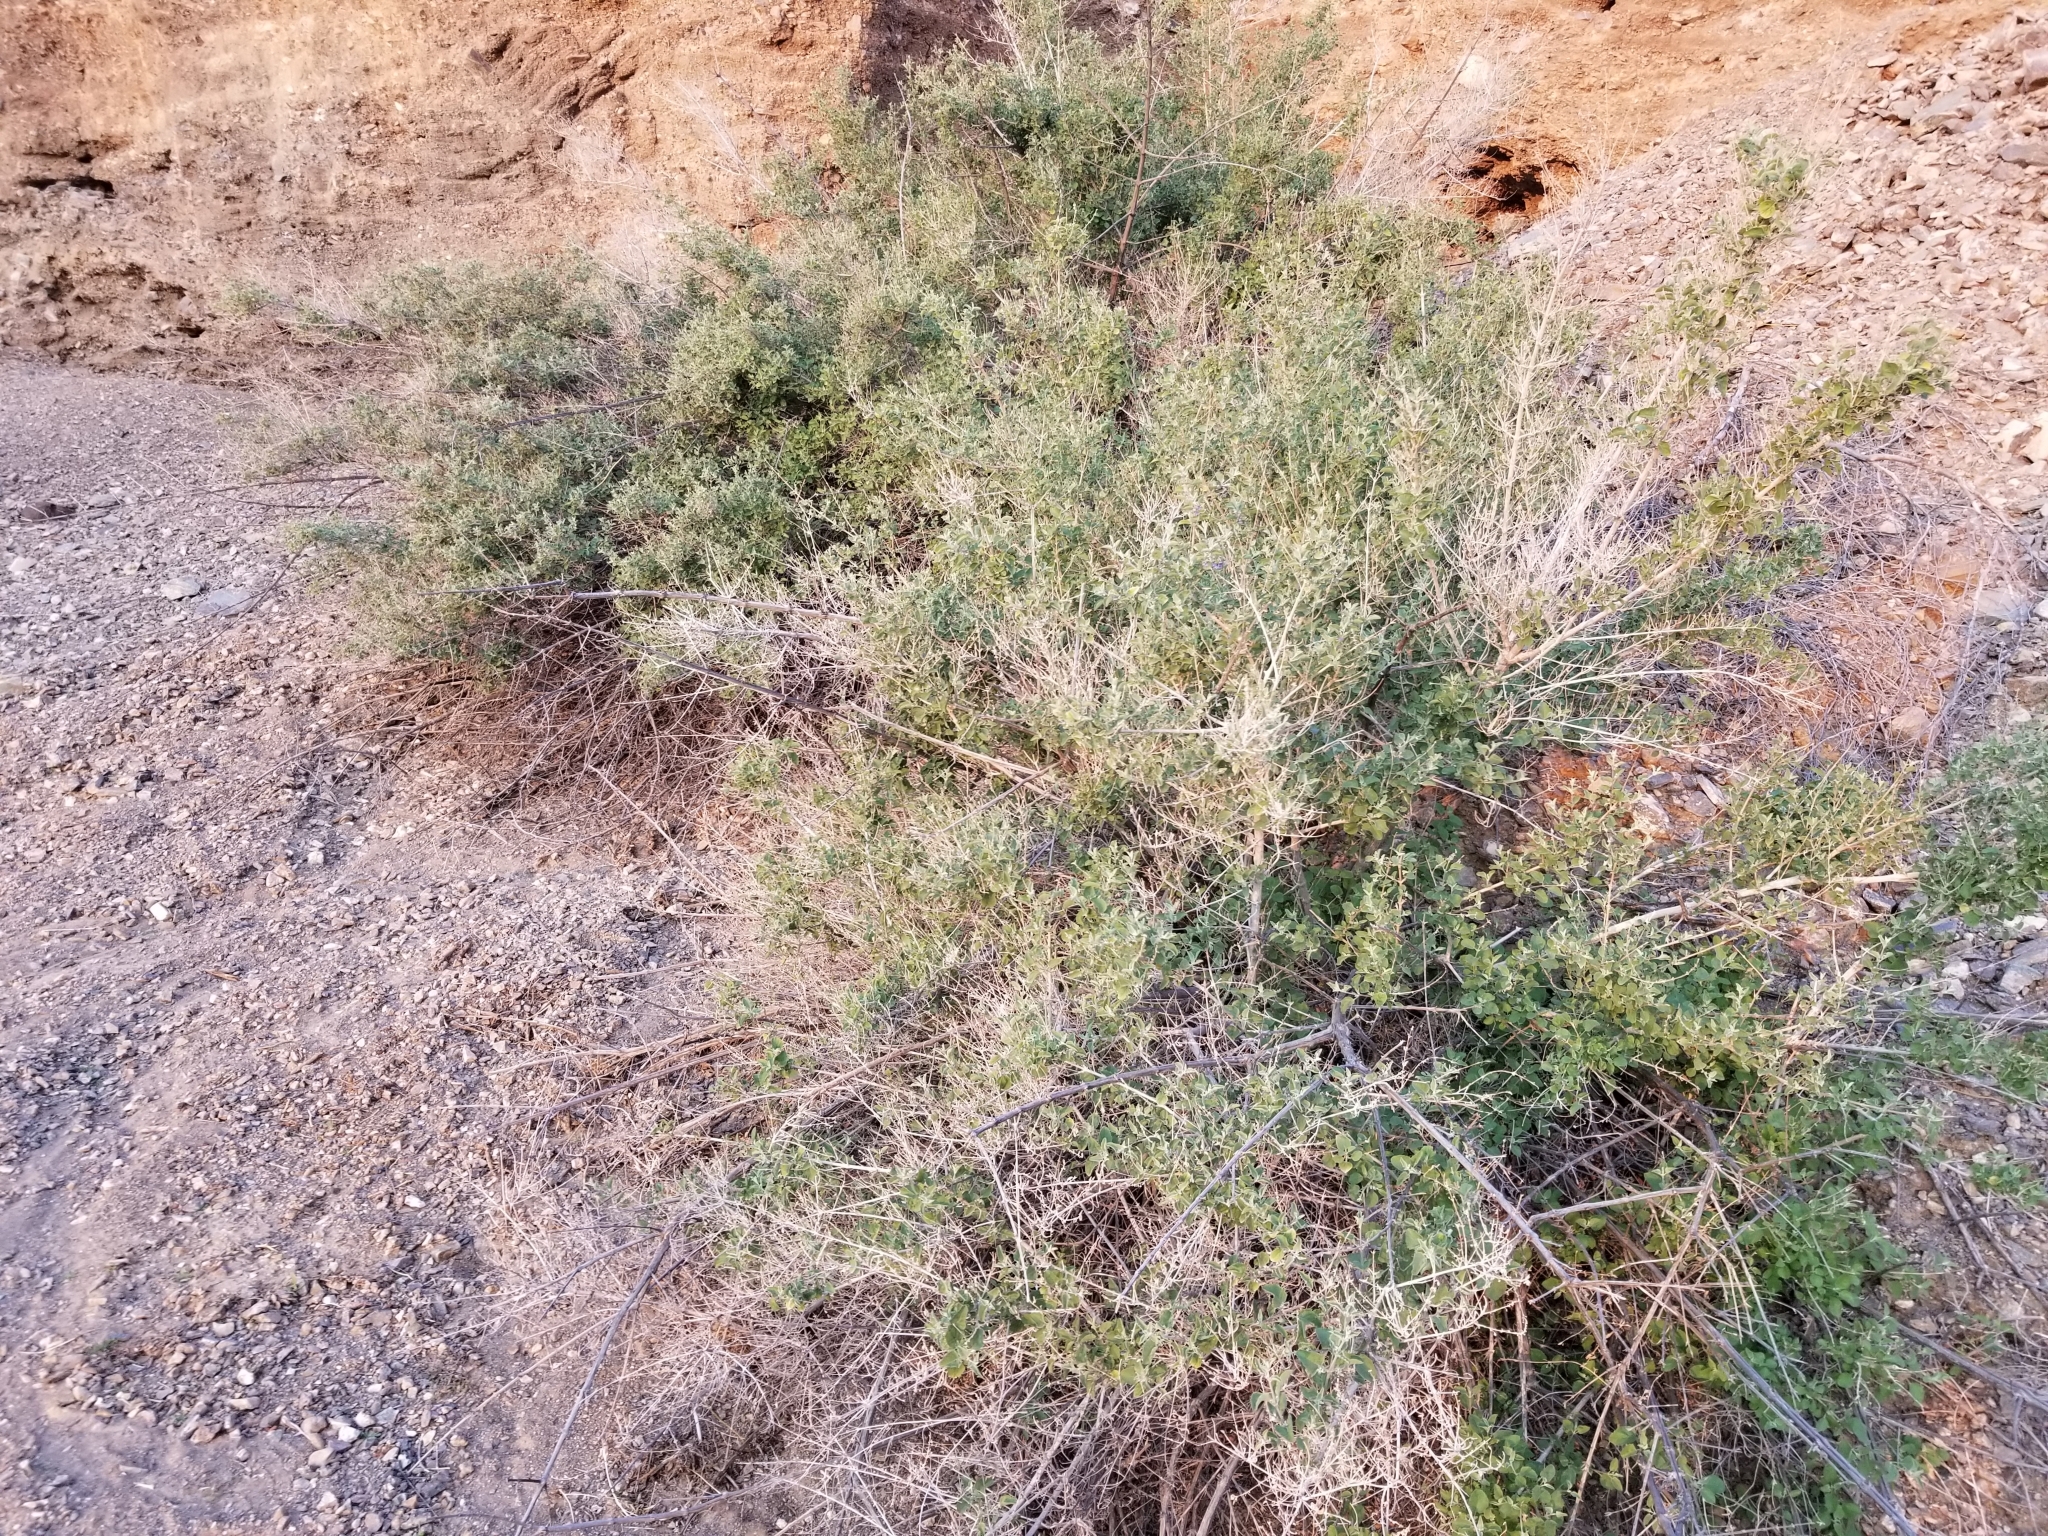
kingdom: Plantae
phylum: Tracheophyta
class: Magnoliopsida
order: Lamiales
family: Lamiaceae
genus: Condea
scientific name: Condea emoryi
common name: Chia
